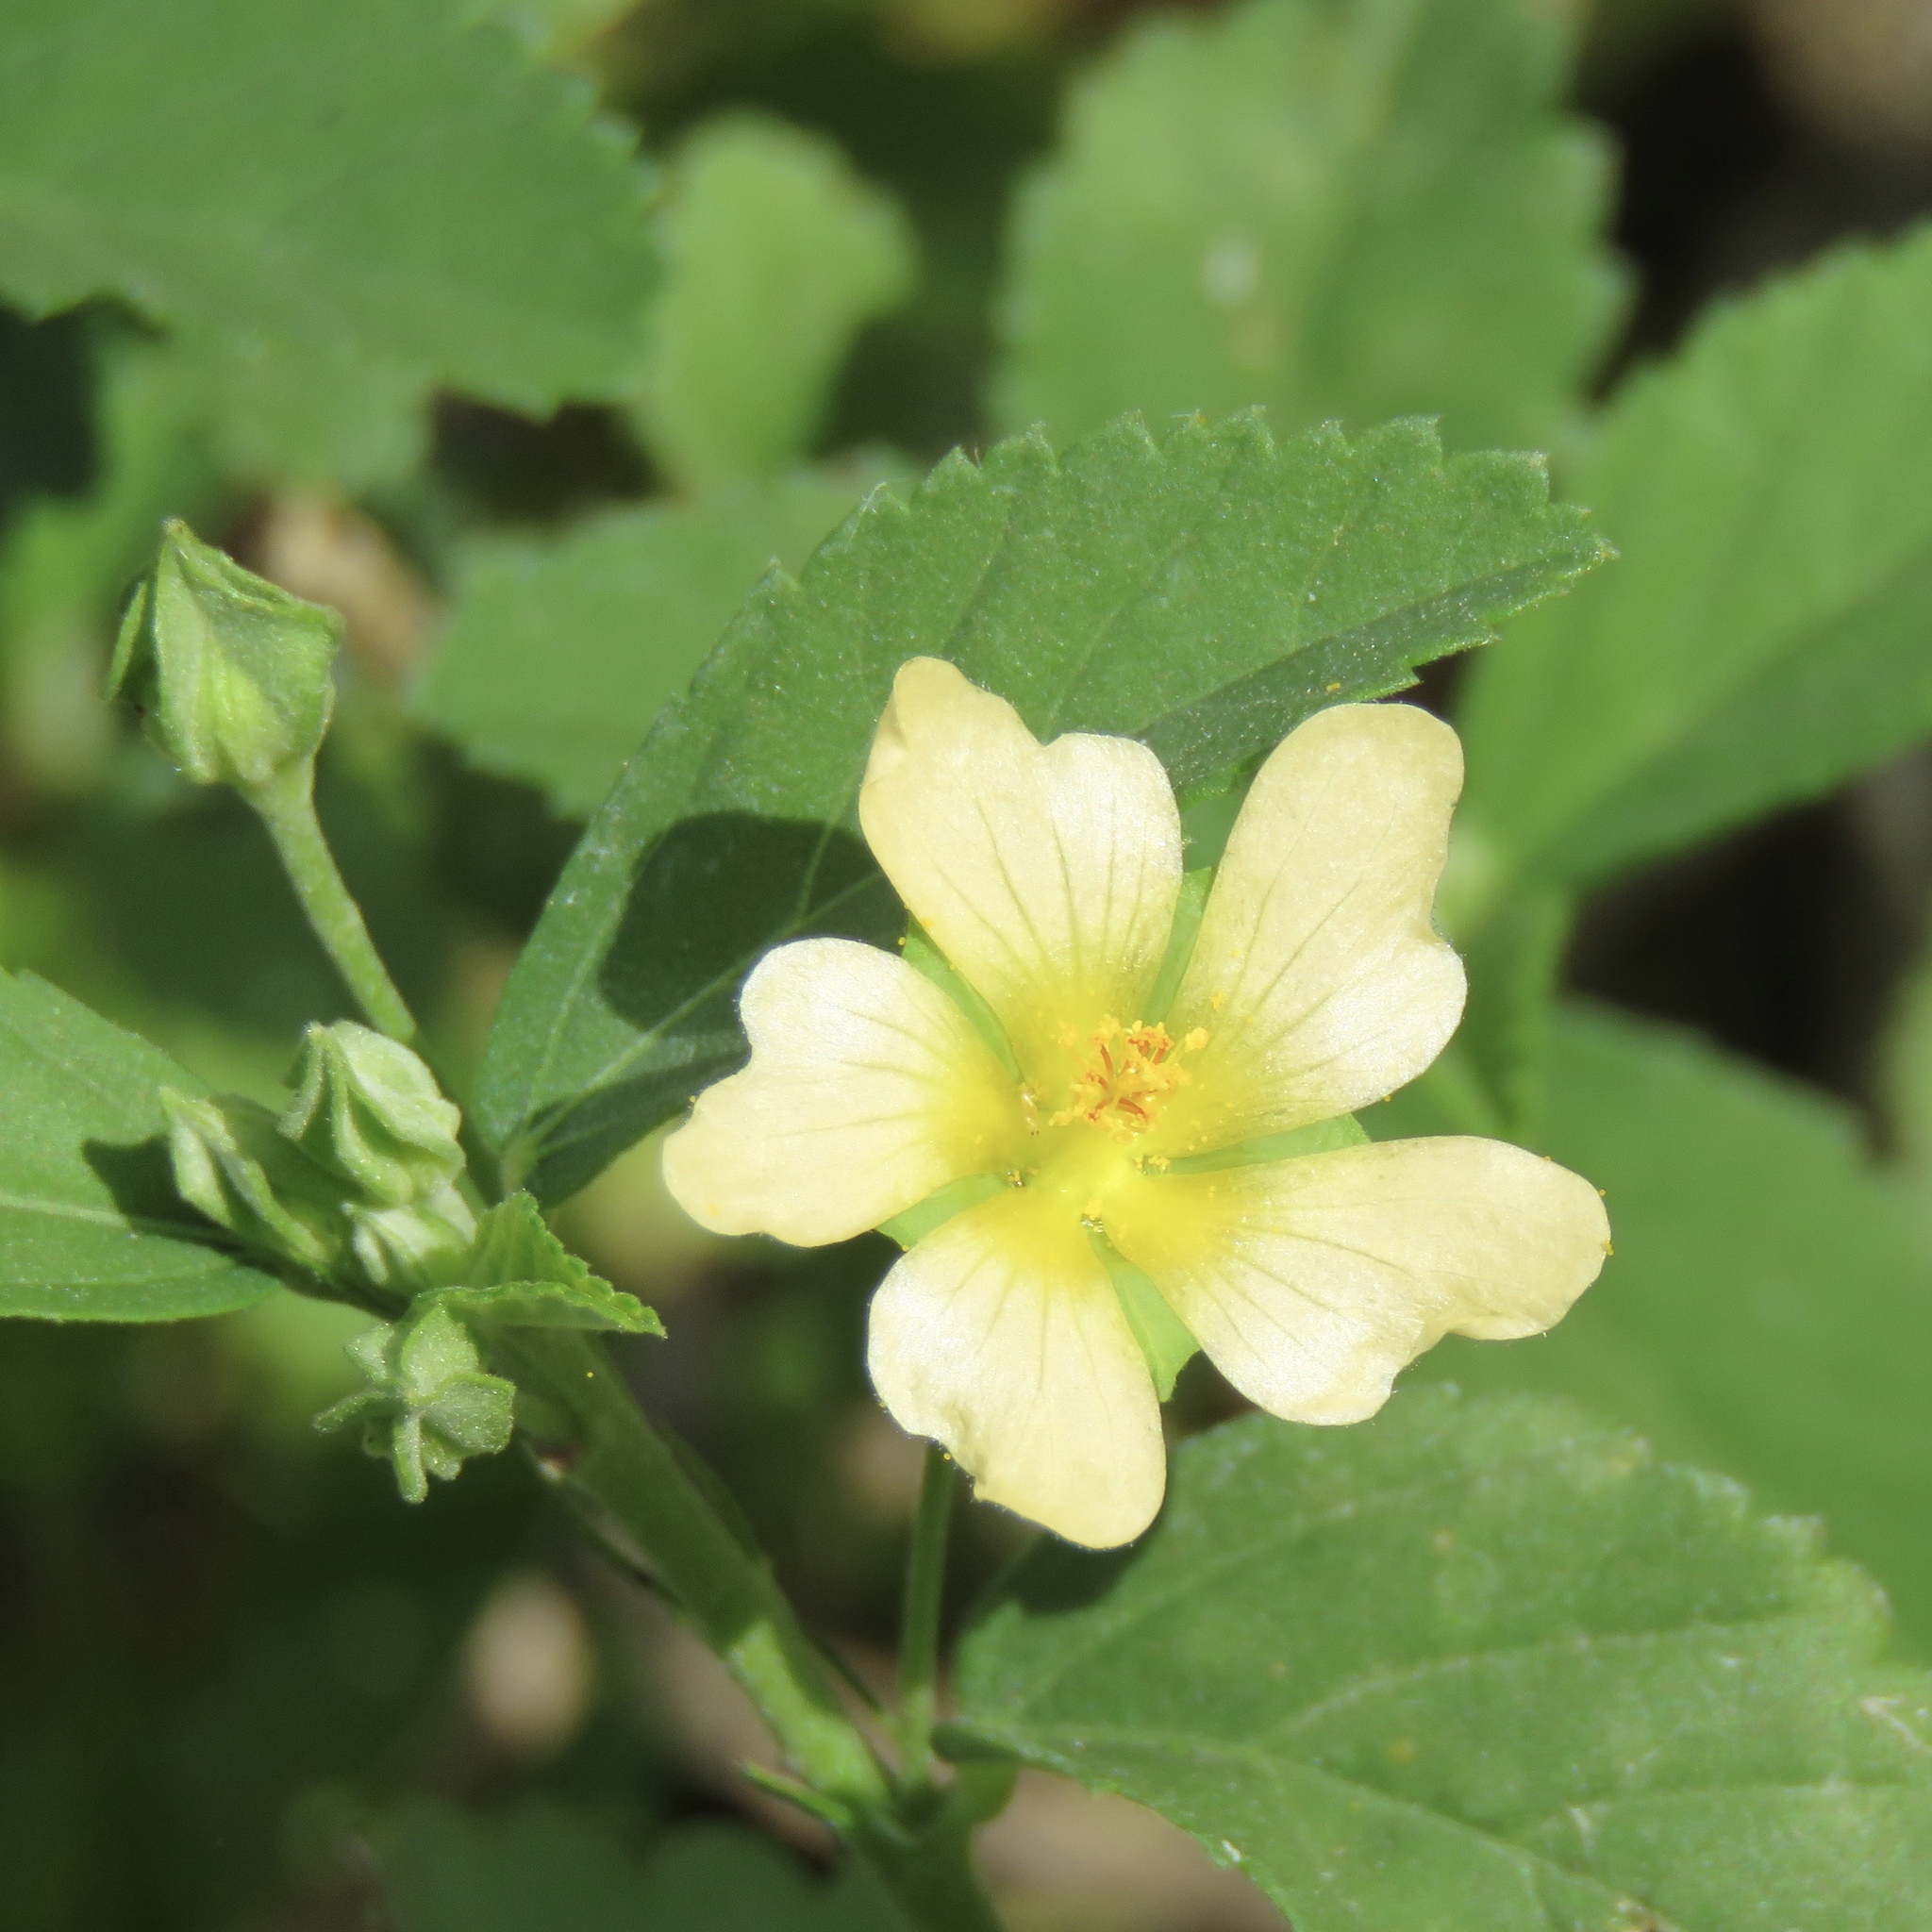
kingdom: Plantae
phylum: Tracheophyta
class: Magnoliopsida
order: Malvales
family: Malvaceae
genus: Sida
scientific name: Sida rhombifolia
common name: Queensland-hemp
